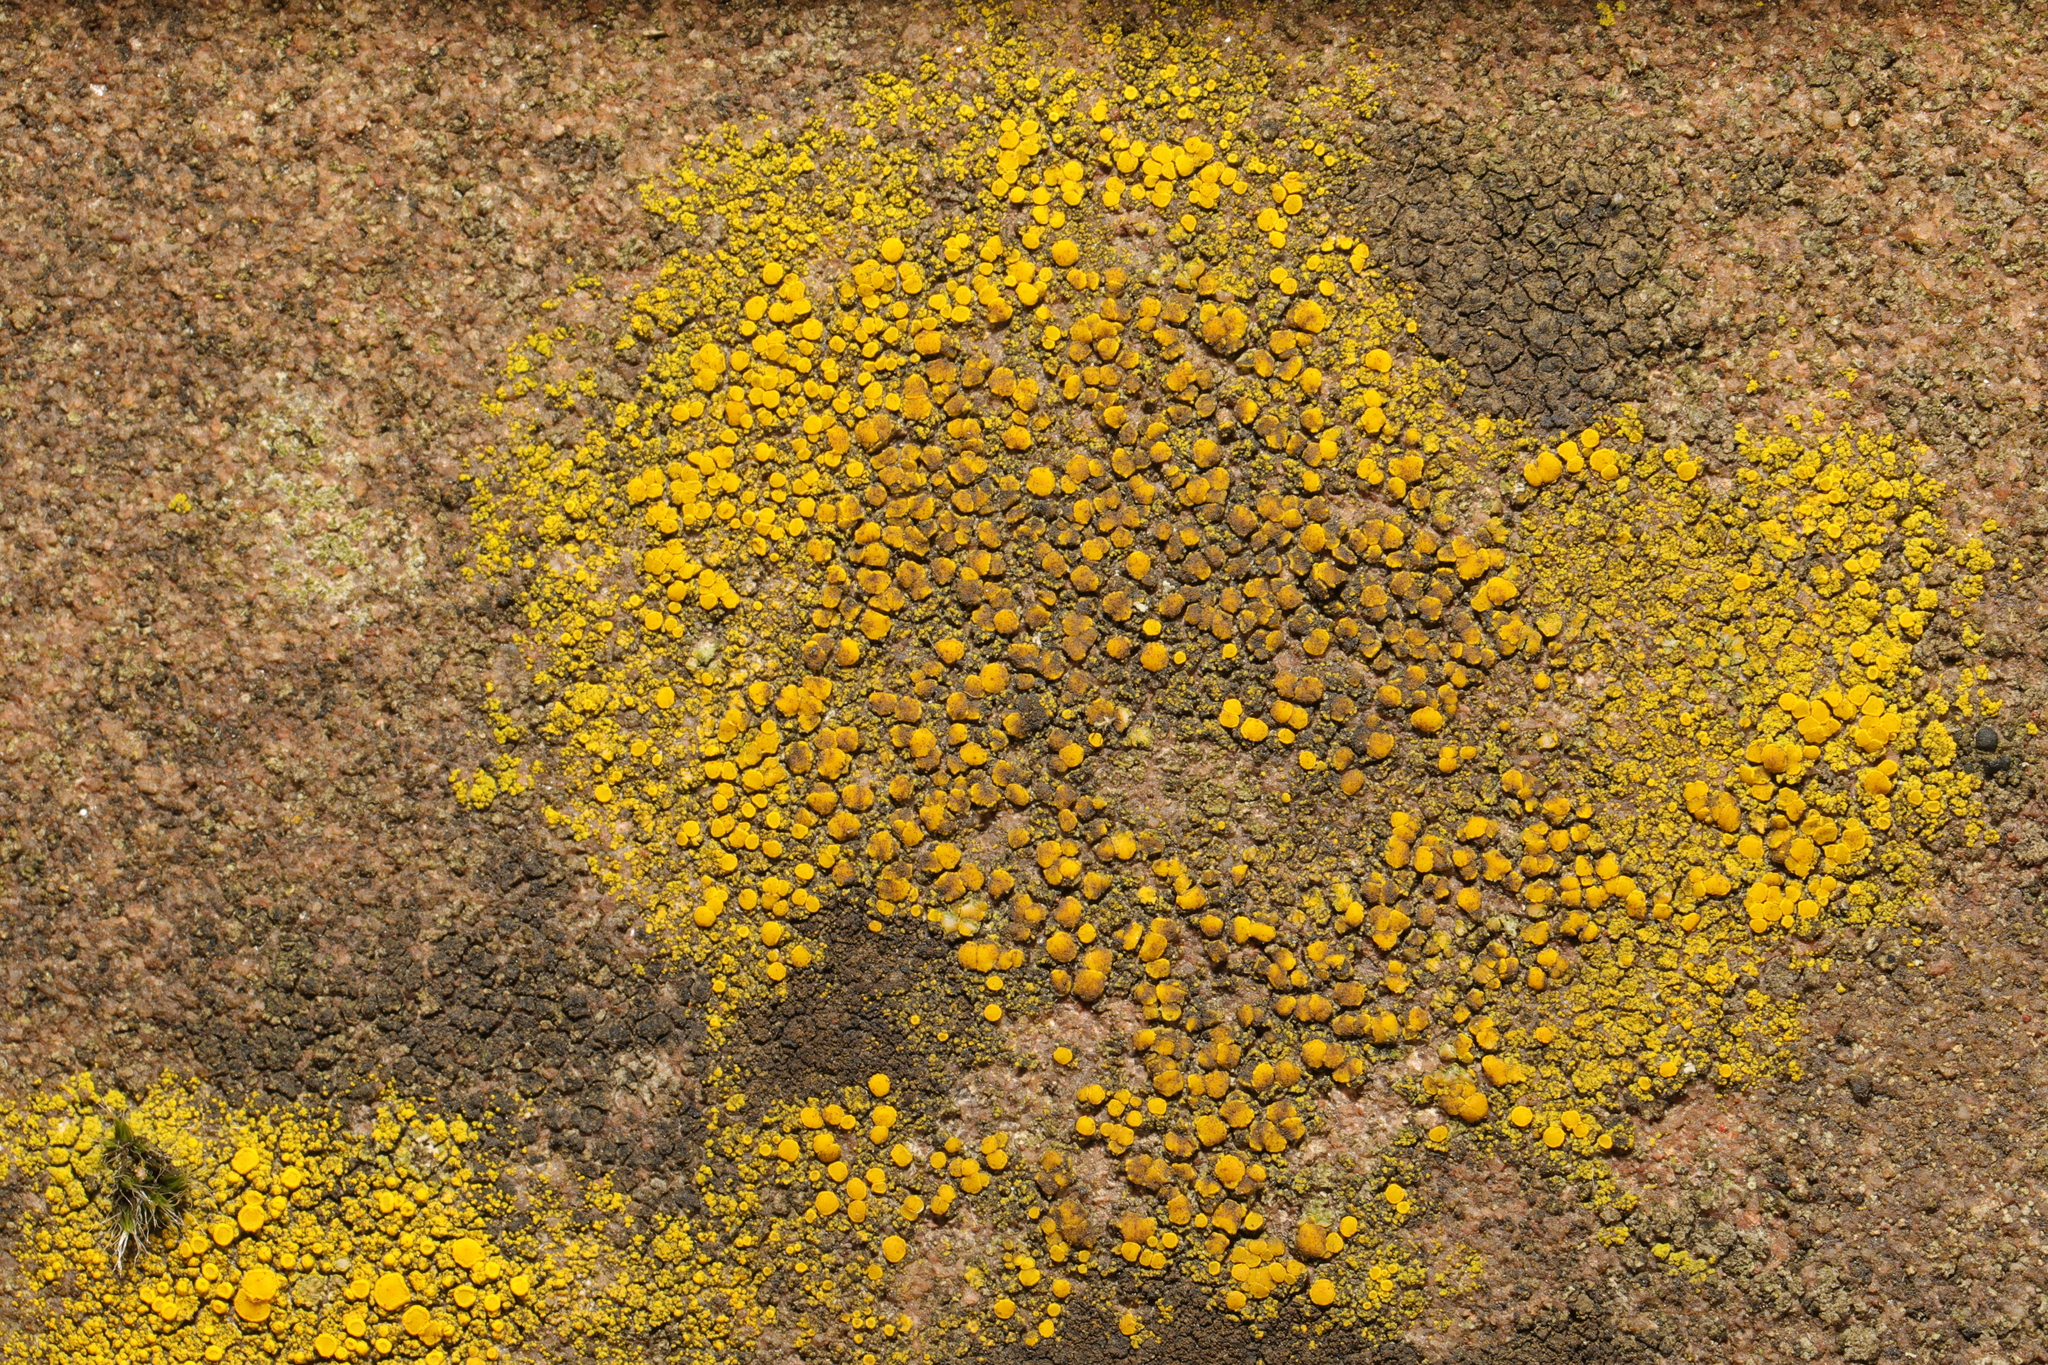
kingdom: Fungi
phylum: Ascomycota
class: Candelariomycetes
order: Candelariales
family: Candelariaceae
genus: Candelariella
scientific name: Candelariella vitellina
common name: Common goldspeck
